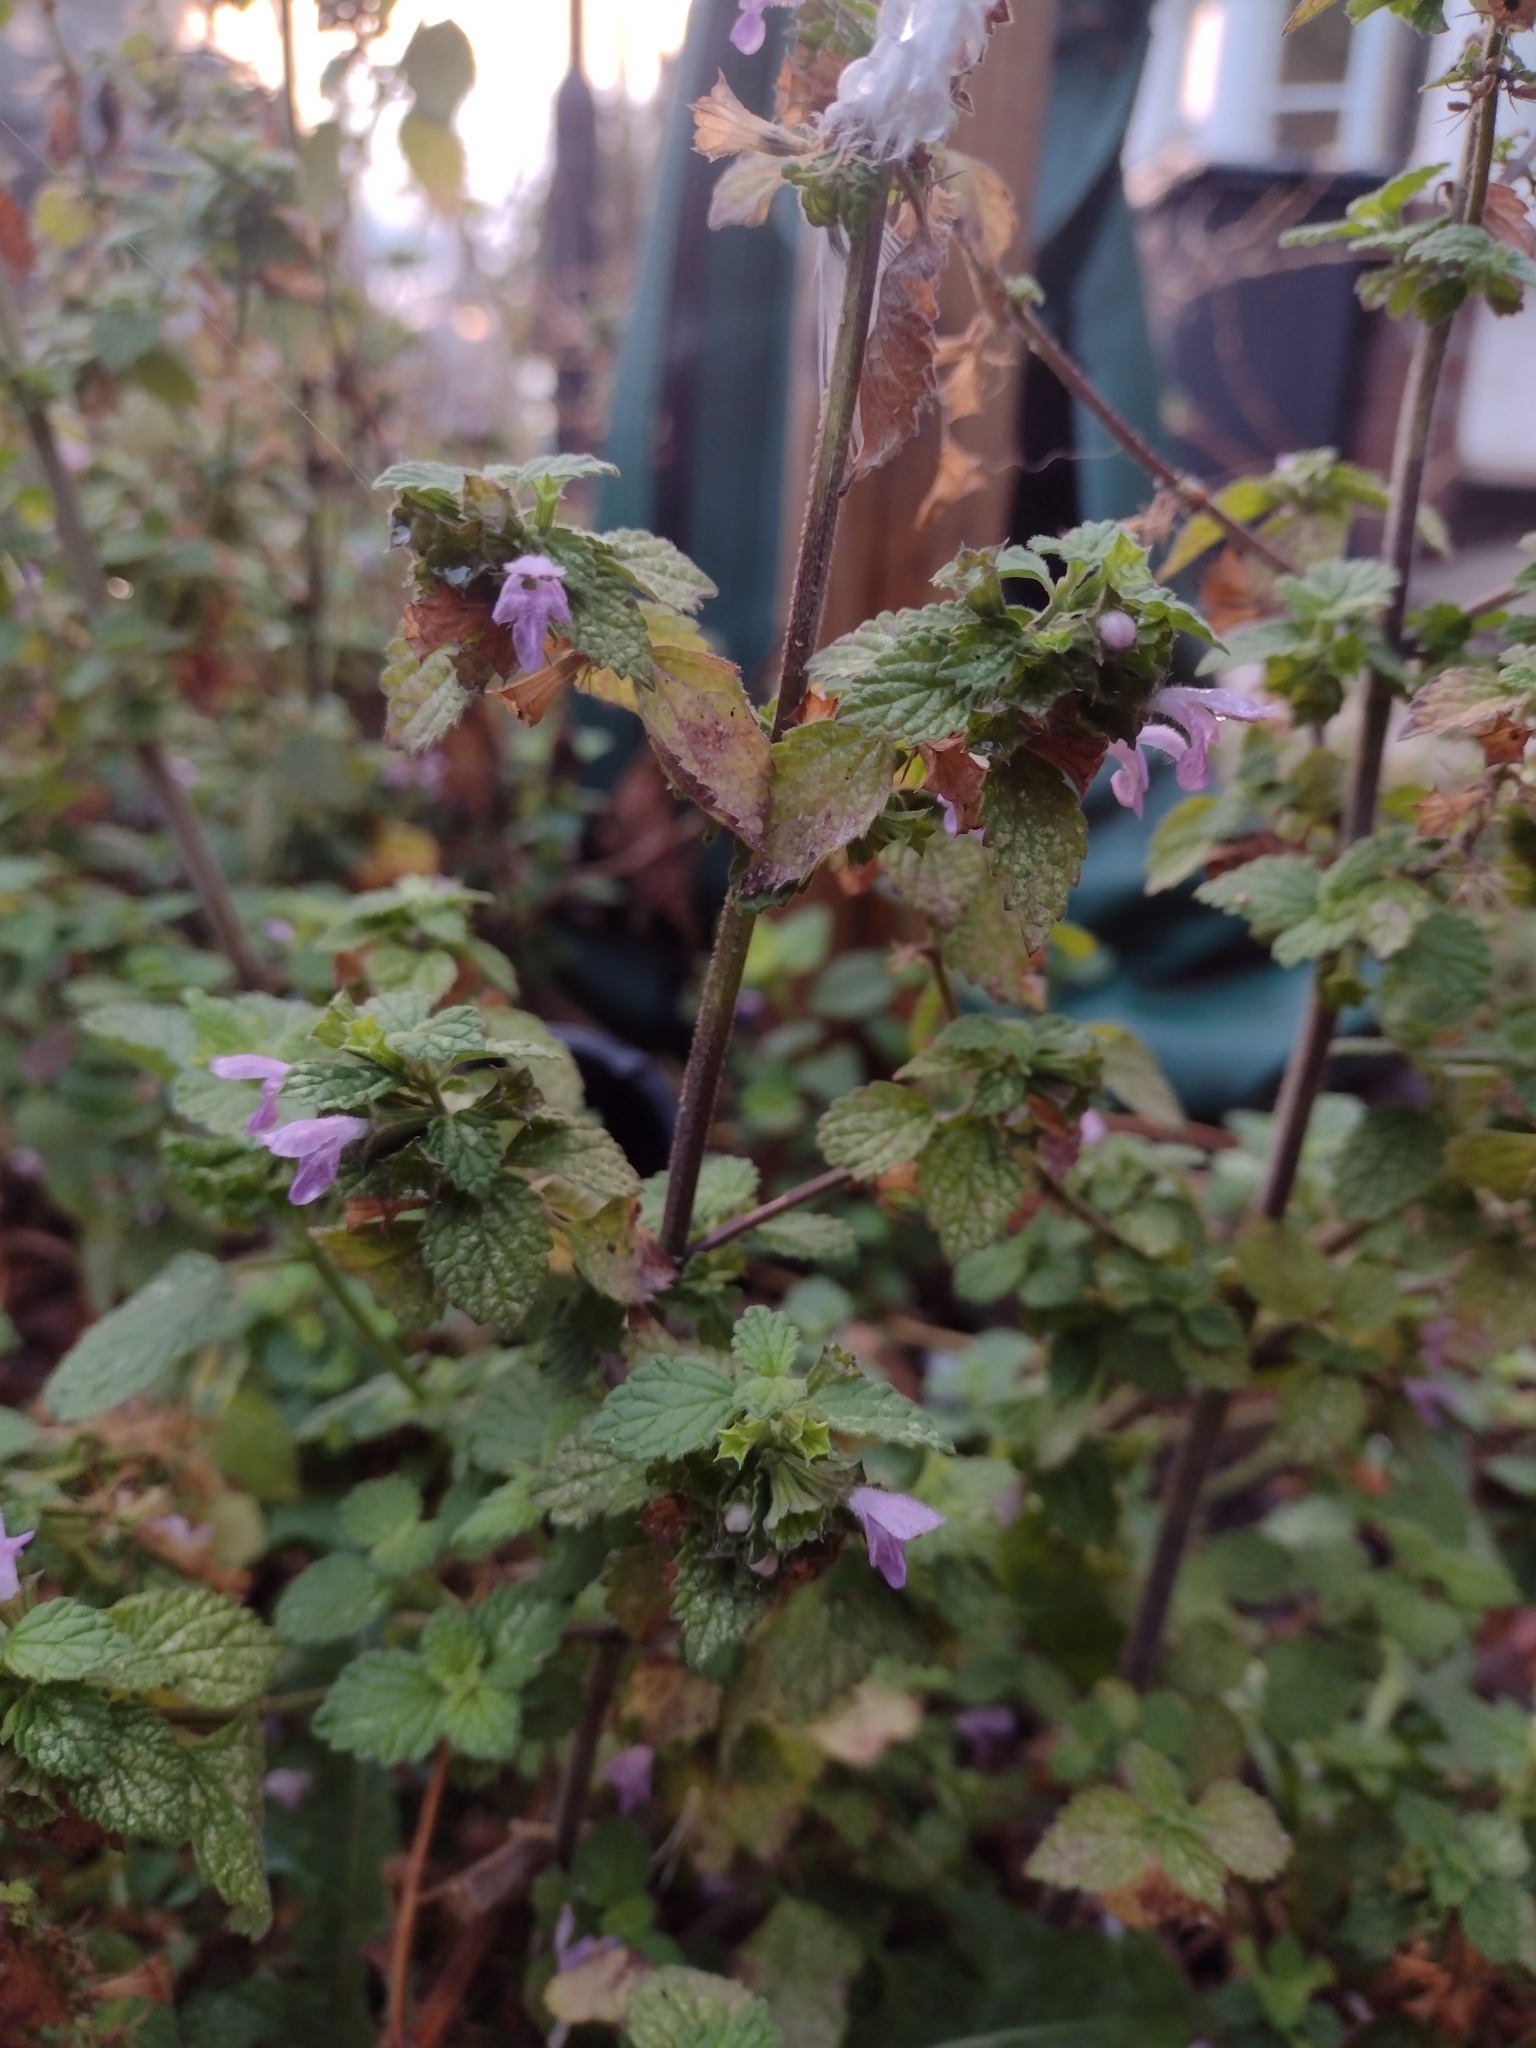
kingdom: Plantae
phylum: Tracheophyta
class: Magnoliopsida
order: Lamiales
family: Lamiaceae
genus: Ballota
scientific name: Ballota nigra
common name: Black horehound
